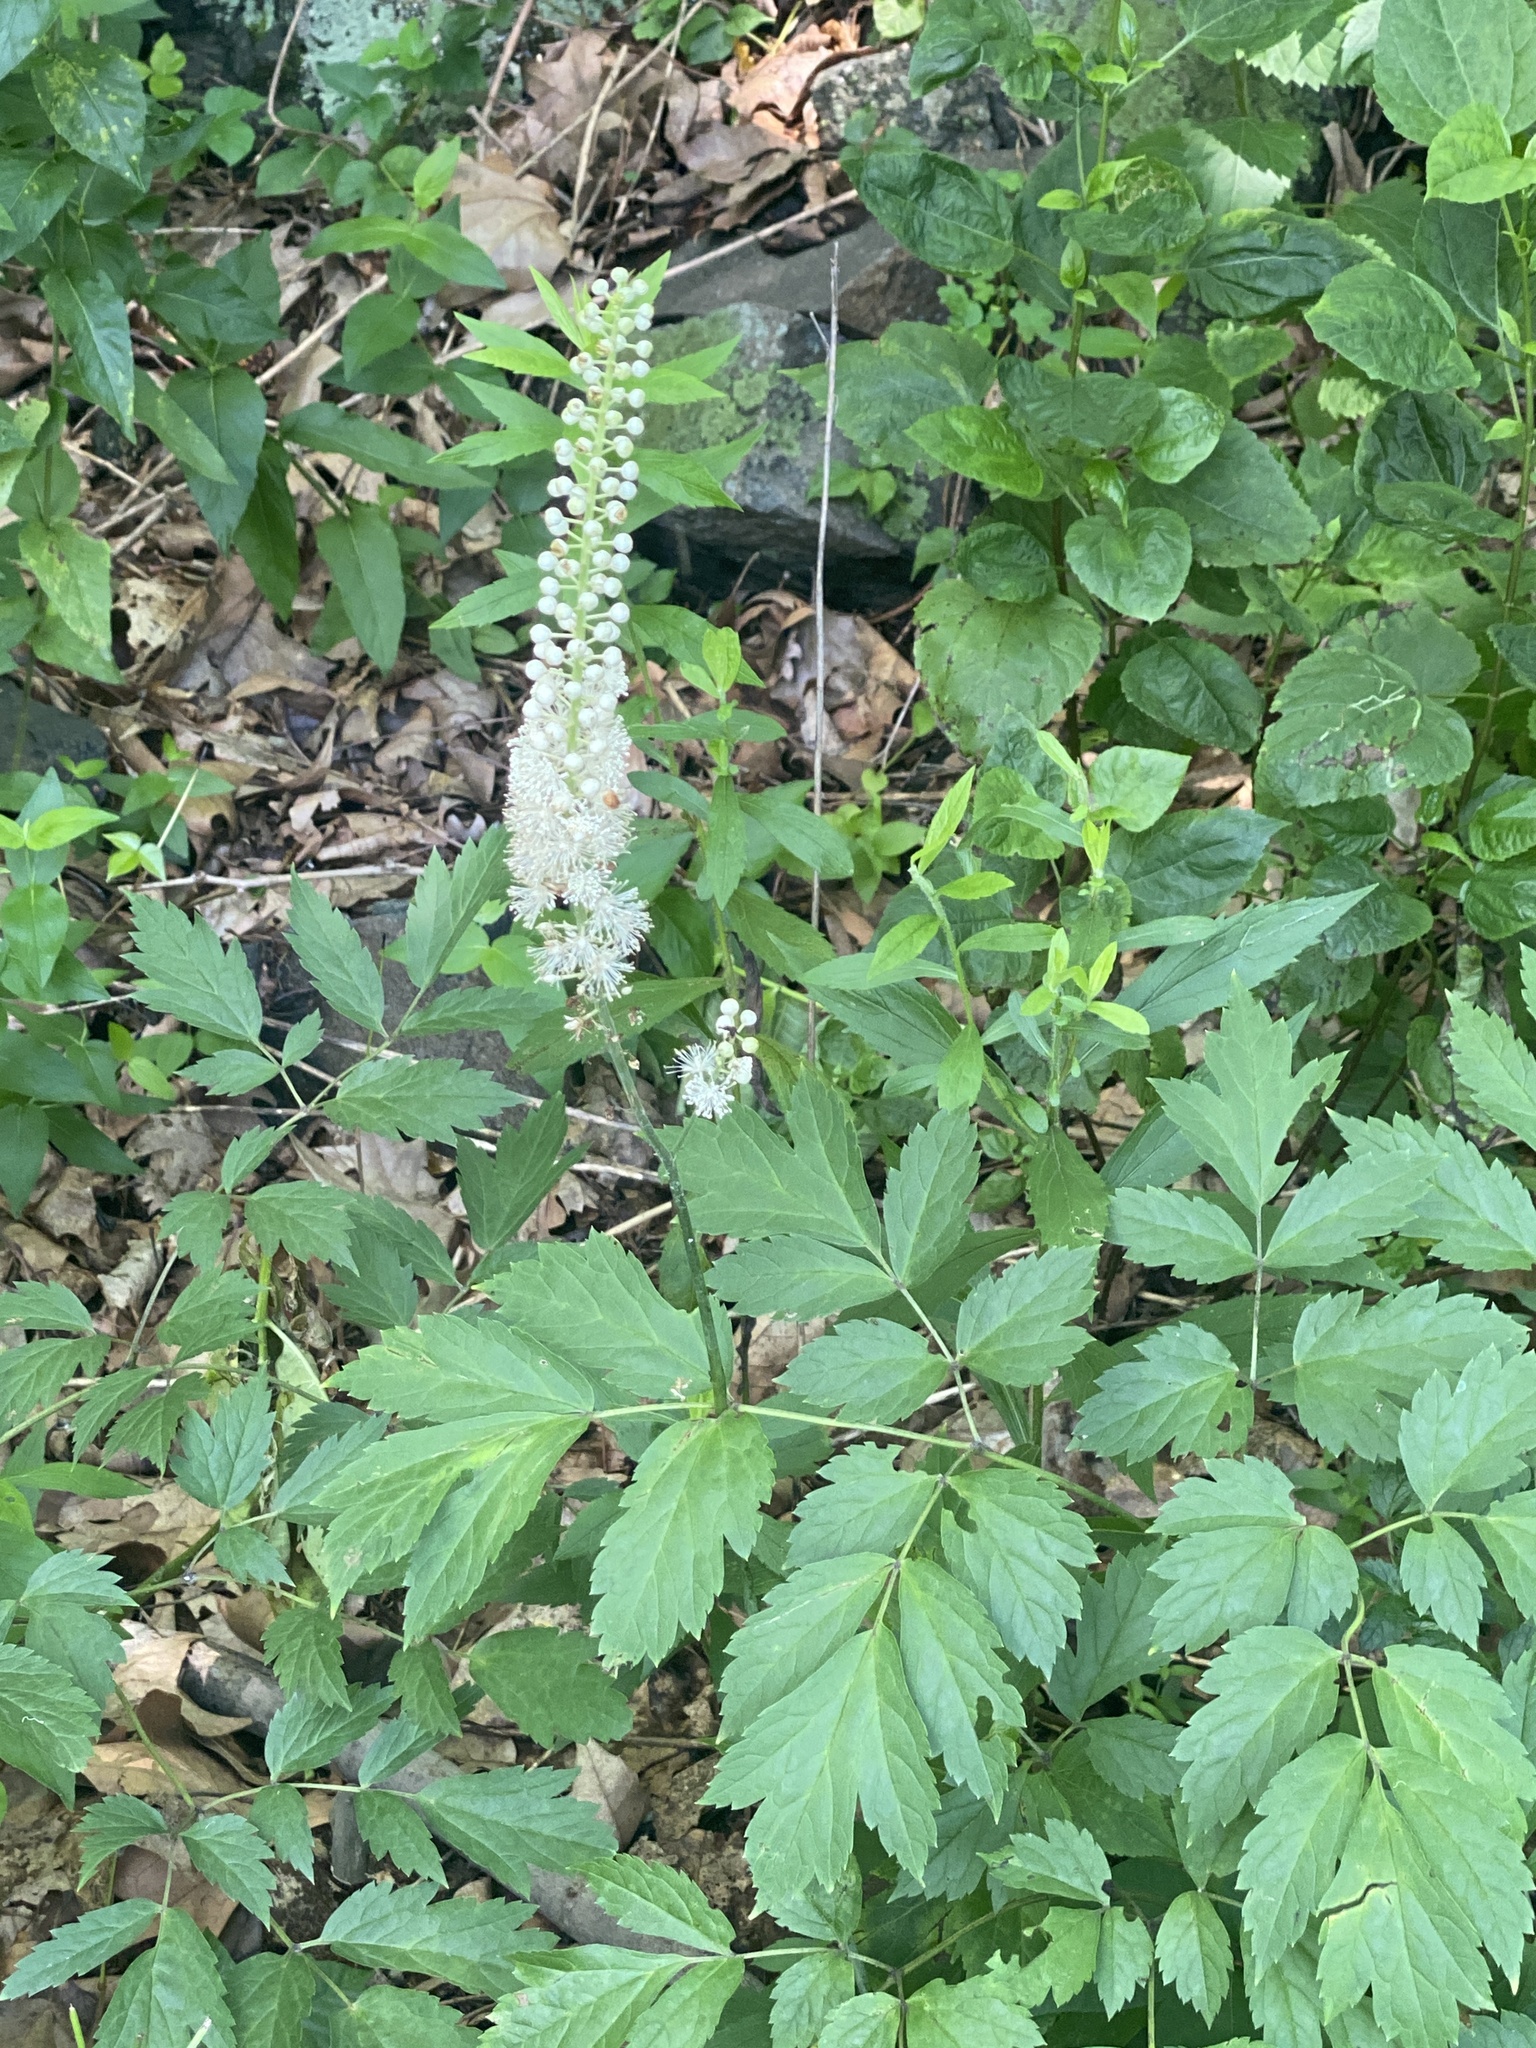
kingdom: Plantae
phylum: Tracheophyta
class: Magnoliopsida
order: Ranunculales
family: Ranunculaceae
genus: Actaea
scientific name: Actaea racemosa
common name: Black cohosh
